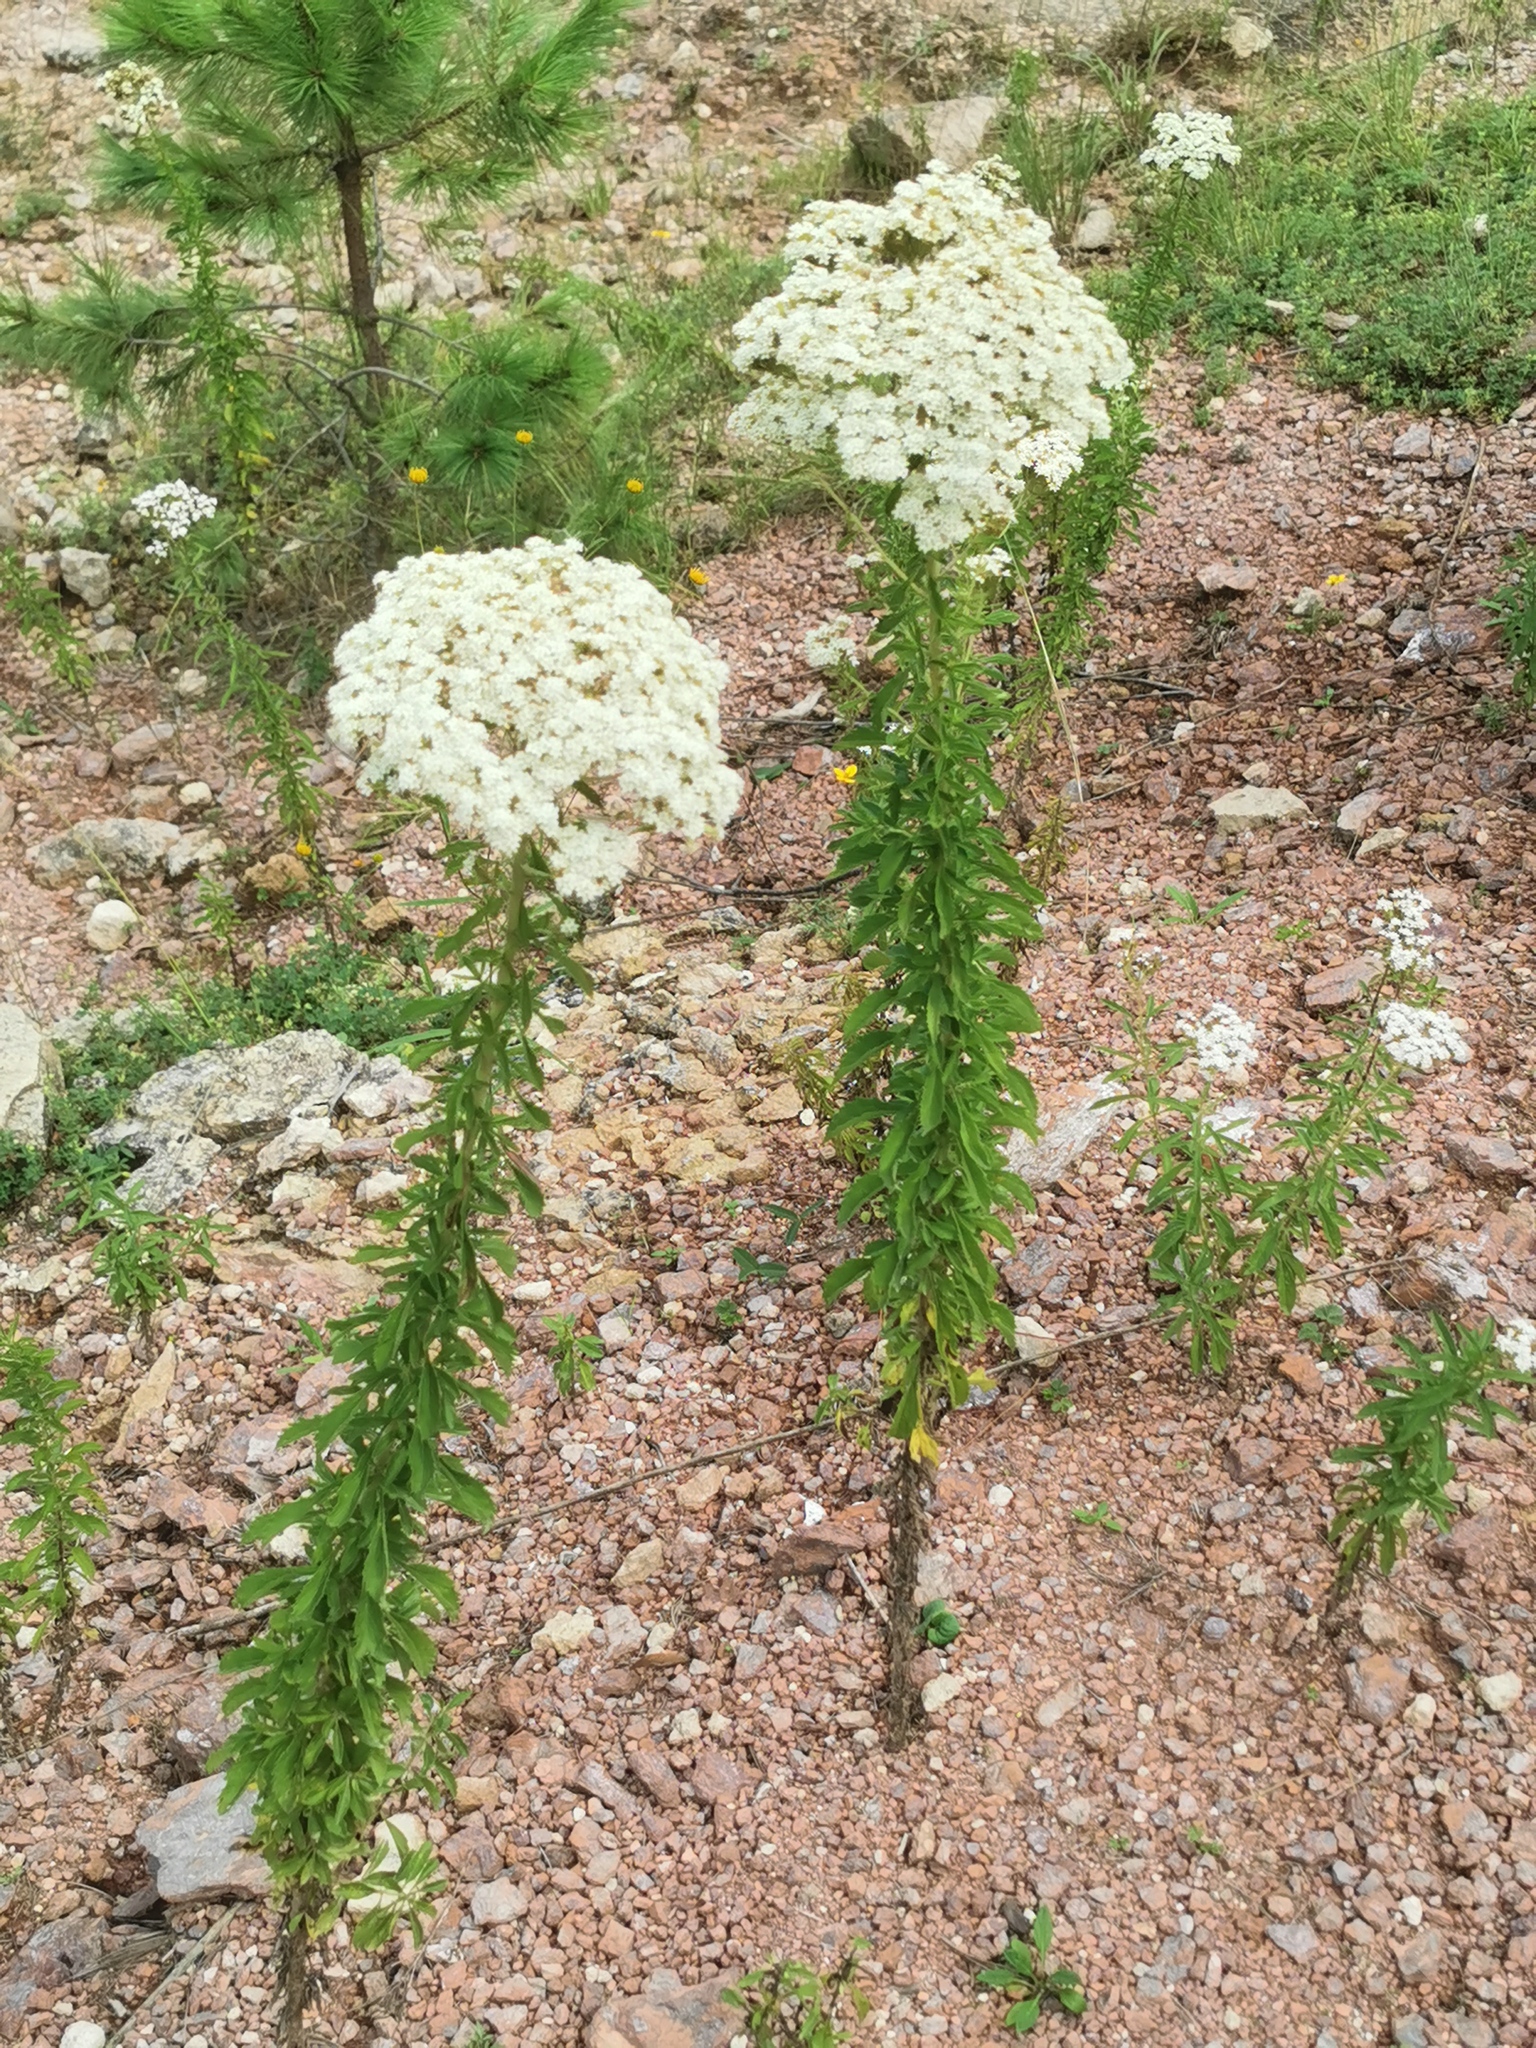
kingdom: Plantae
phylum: Tracheophyta
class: Magnoliopsida
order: Asterales
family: Asteraceae
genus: Stevia
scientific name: Stevia serrata
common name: Sawtooth candyleaf
